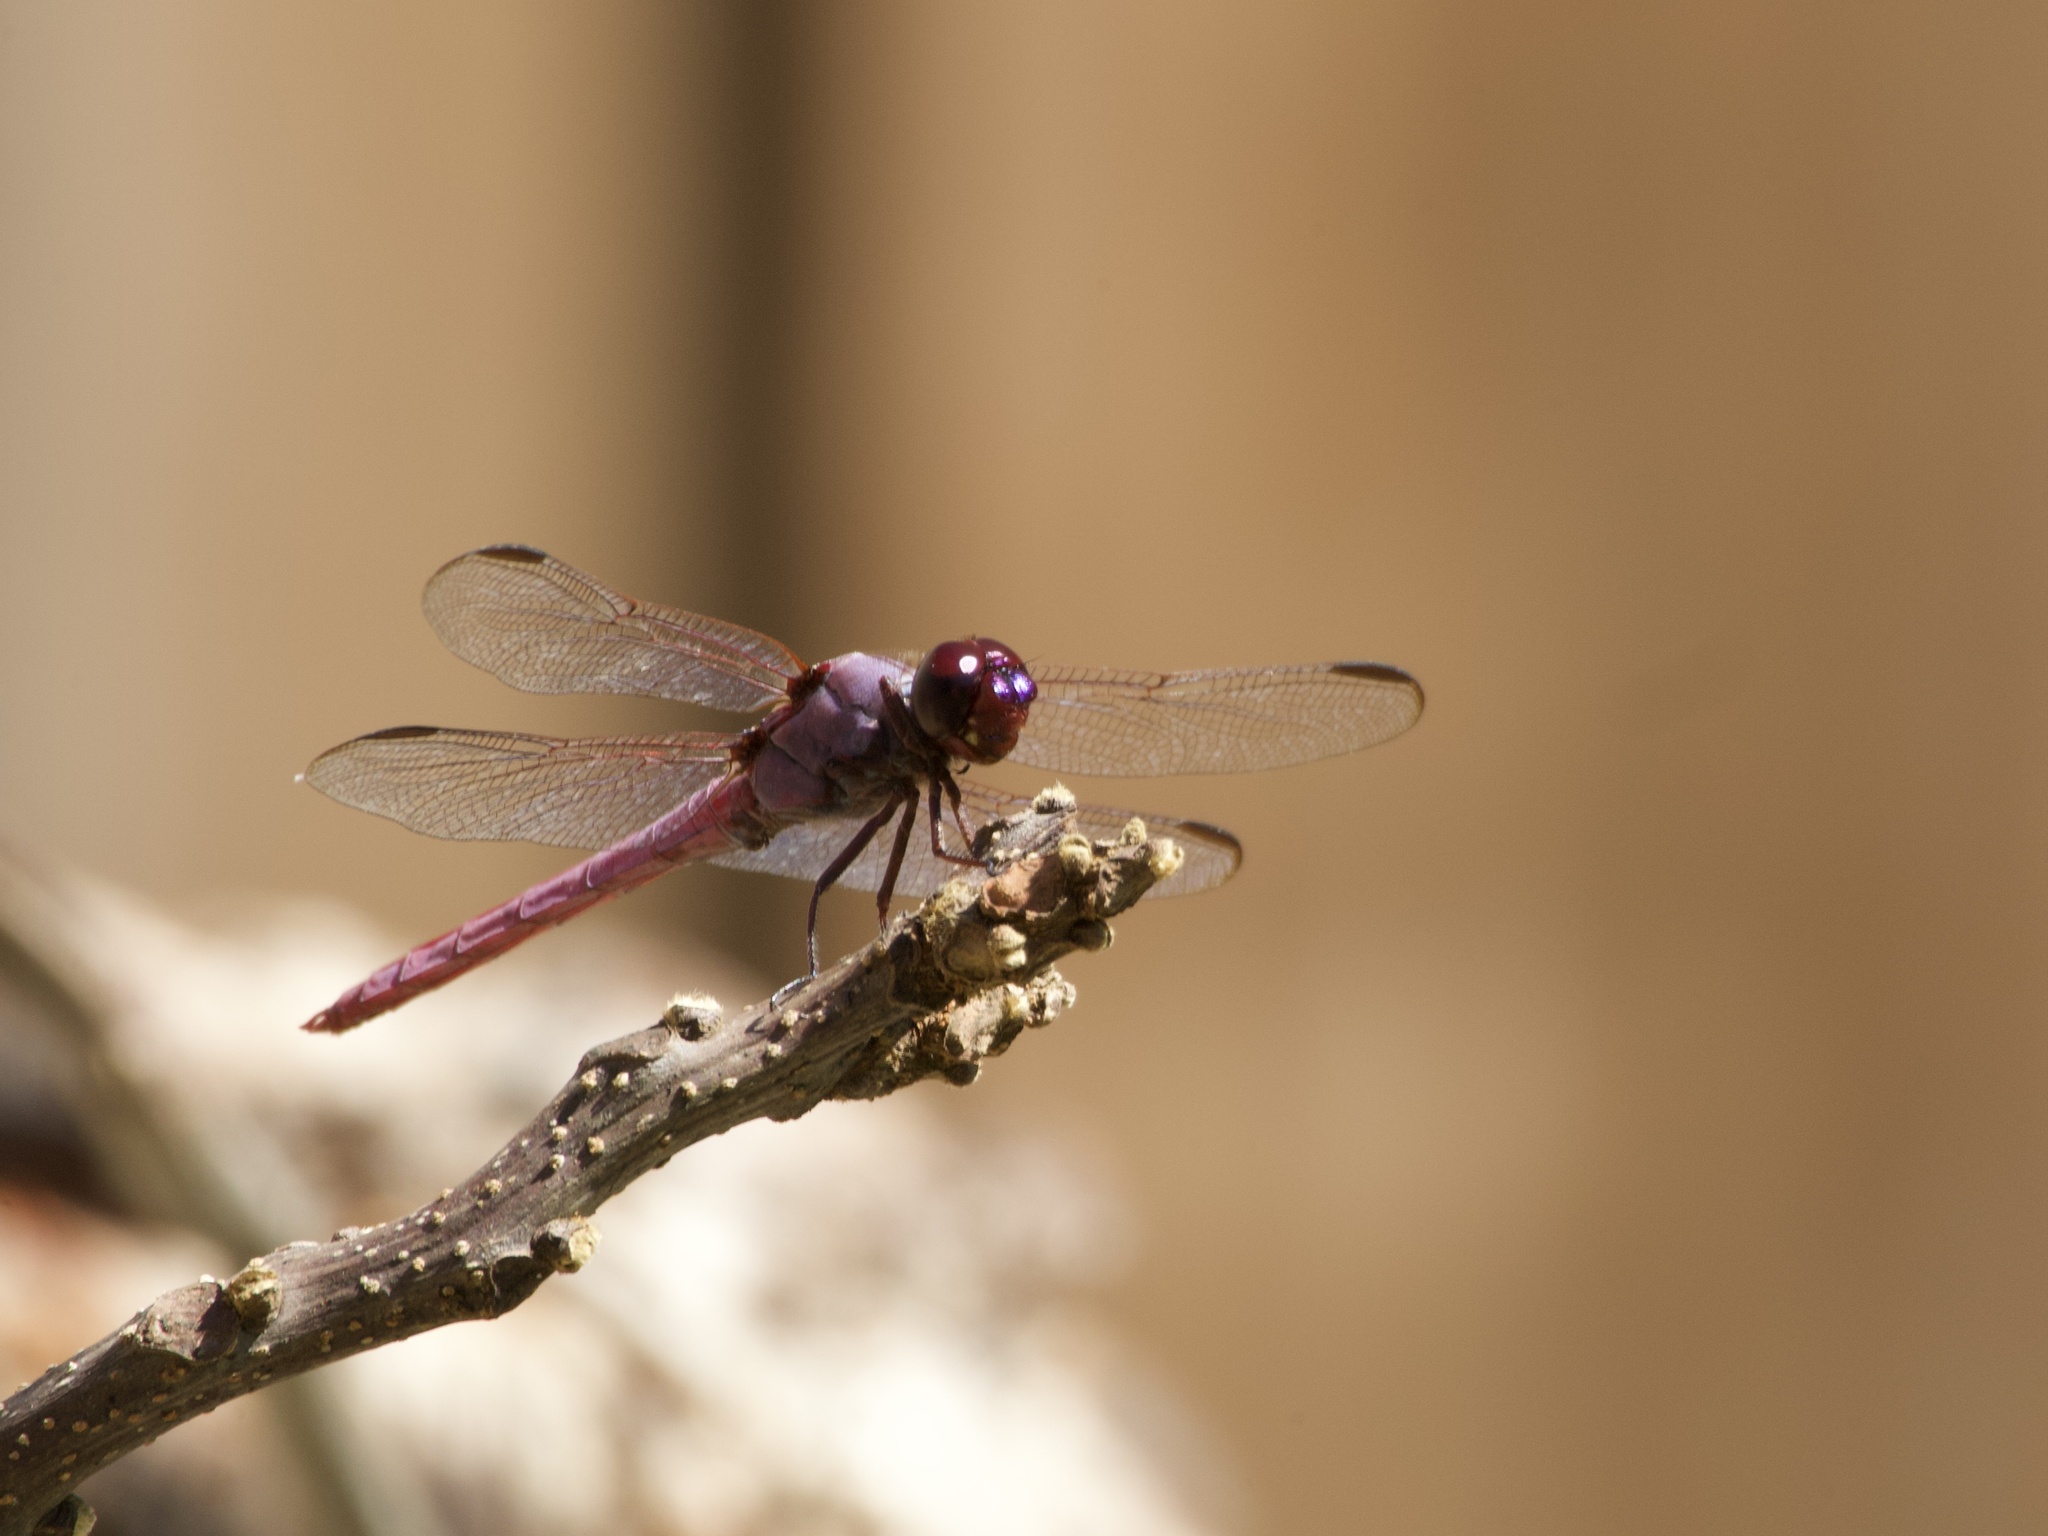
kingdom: Animalia
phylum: Arthropoda
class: Insecta
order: Odonata
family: Libellulidae
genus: Orthemis
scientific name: Orthemis ferruginea
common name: Roseate skimmer
